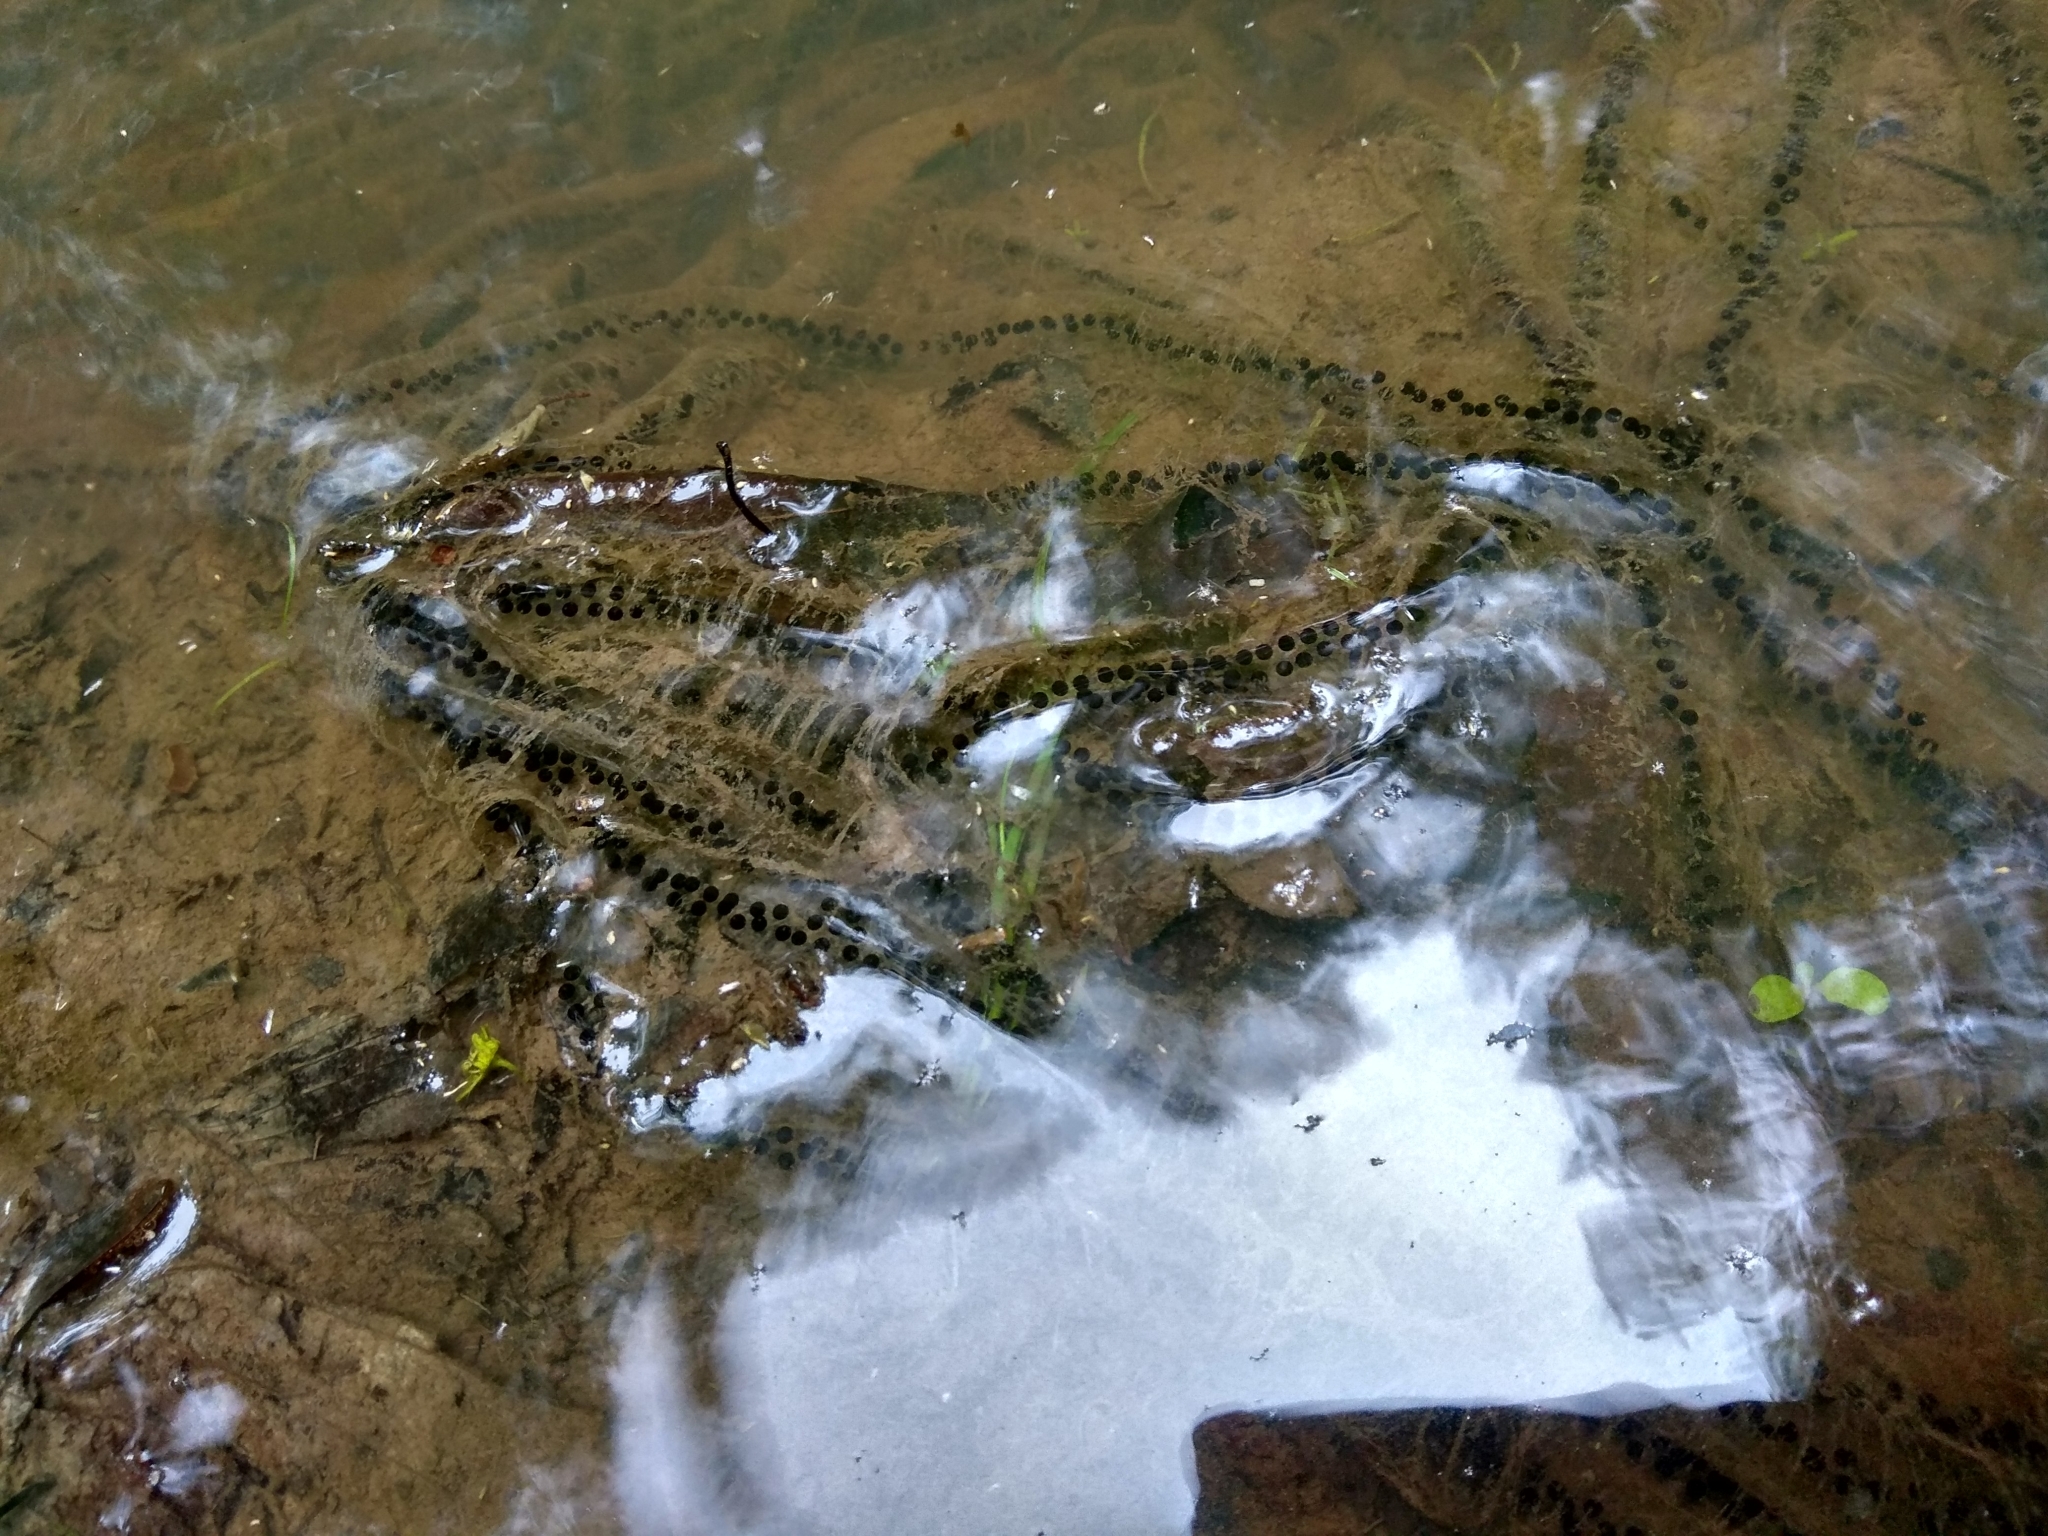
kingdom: Animalia
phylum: Chordata
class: Amphibia
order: Anura
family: Bufonidae
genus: Bufo
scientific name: Bufo bufo
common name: Common toad
